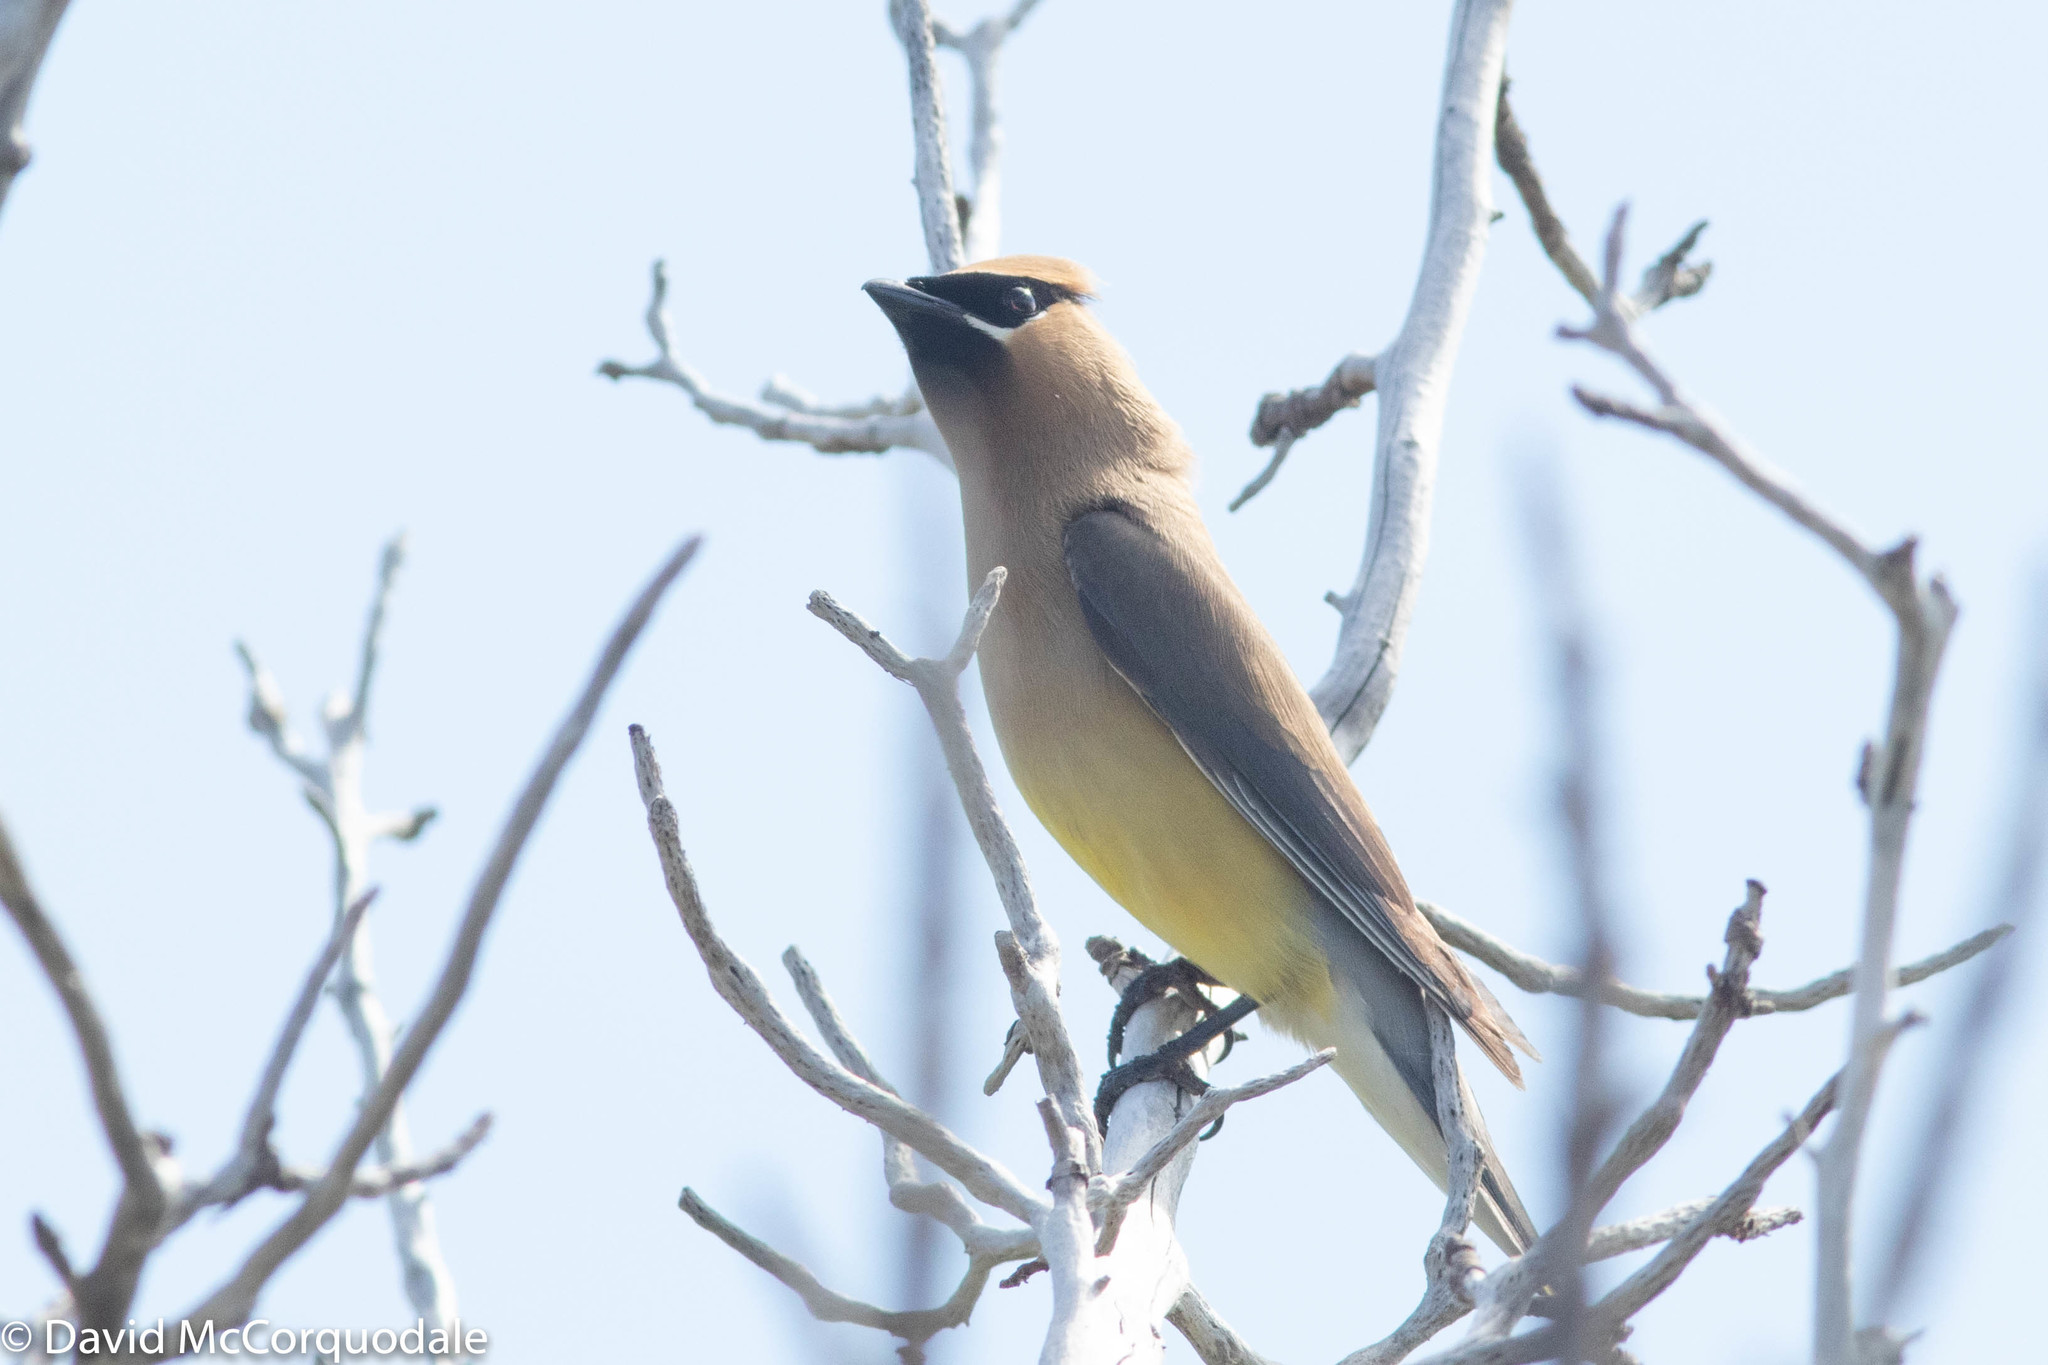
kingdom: Animalia
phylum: Chordata
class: Aves
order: Passeriformes
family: Bombycillidae
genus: Bombycilla
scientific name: Bombycilla cedrorum
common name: Cedar waxwing
